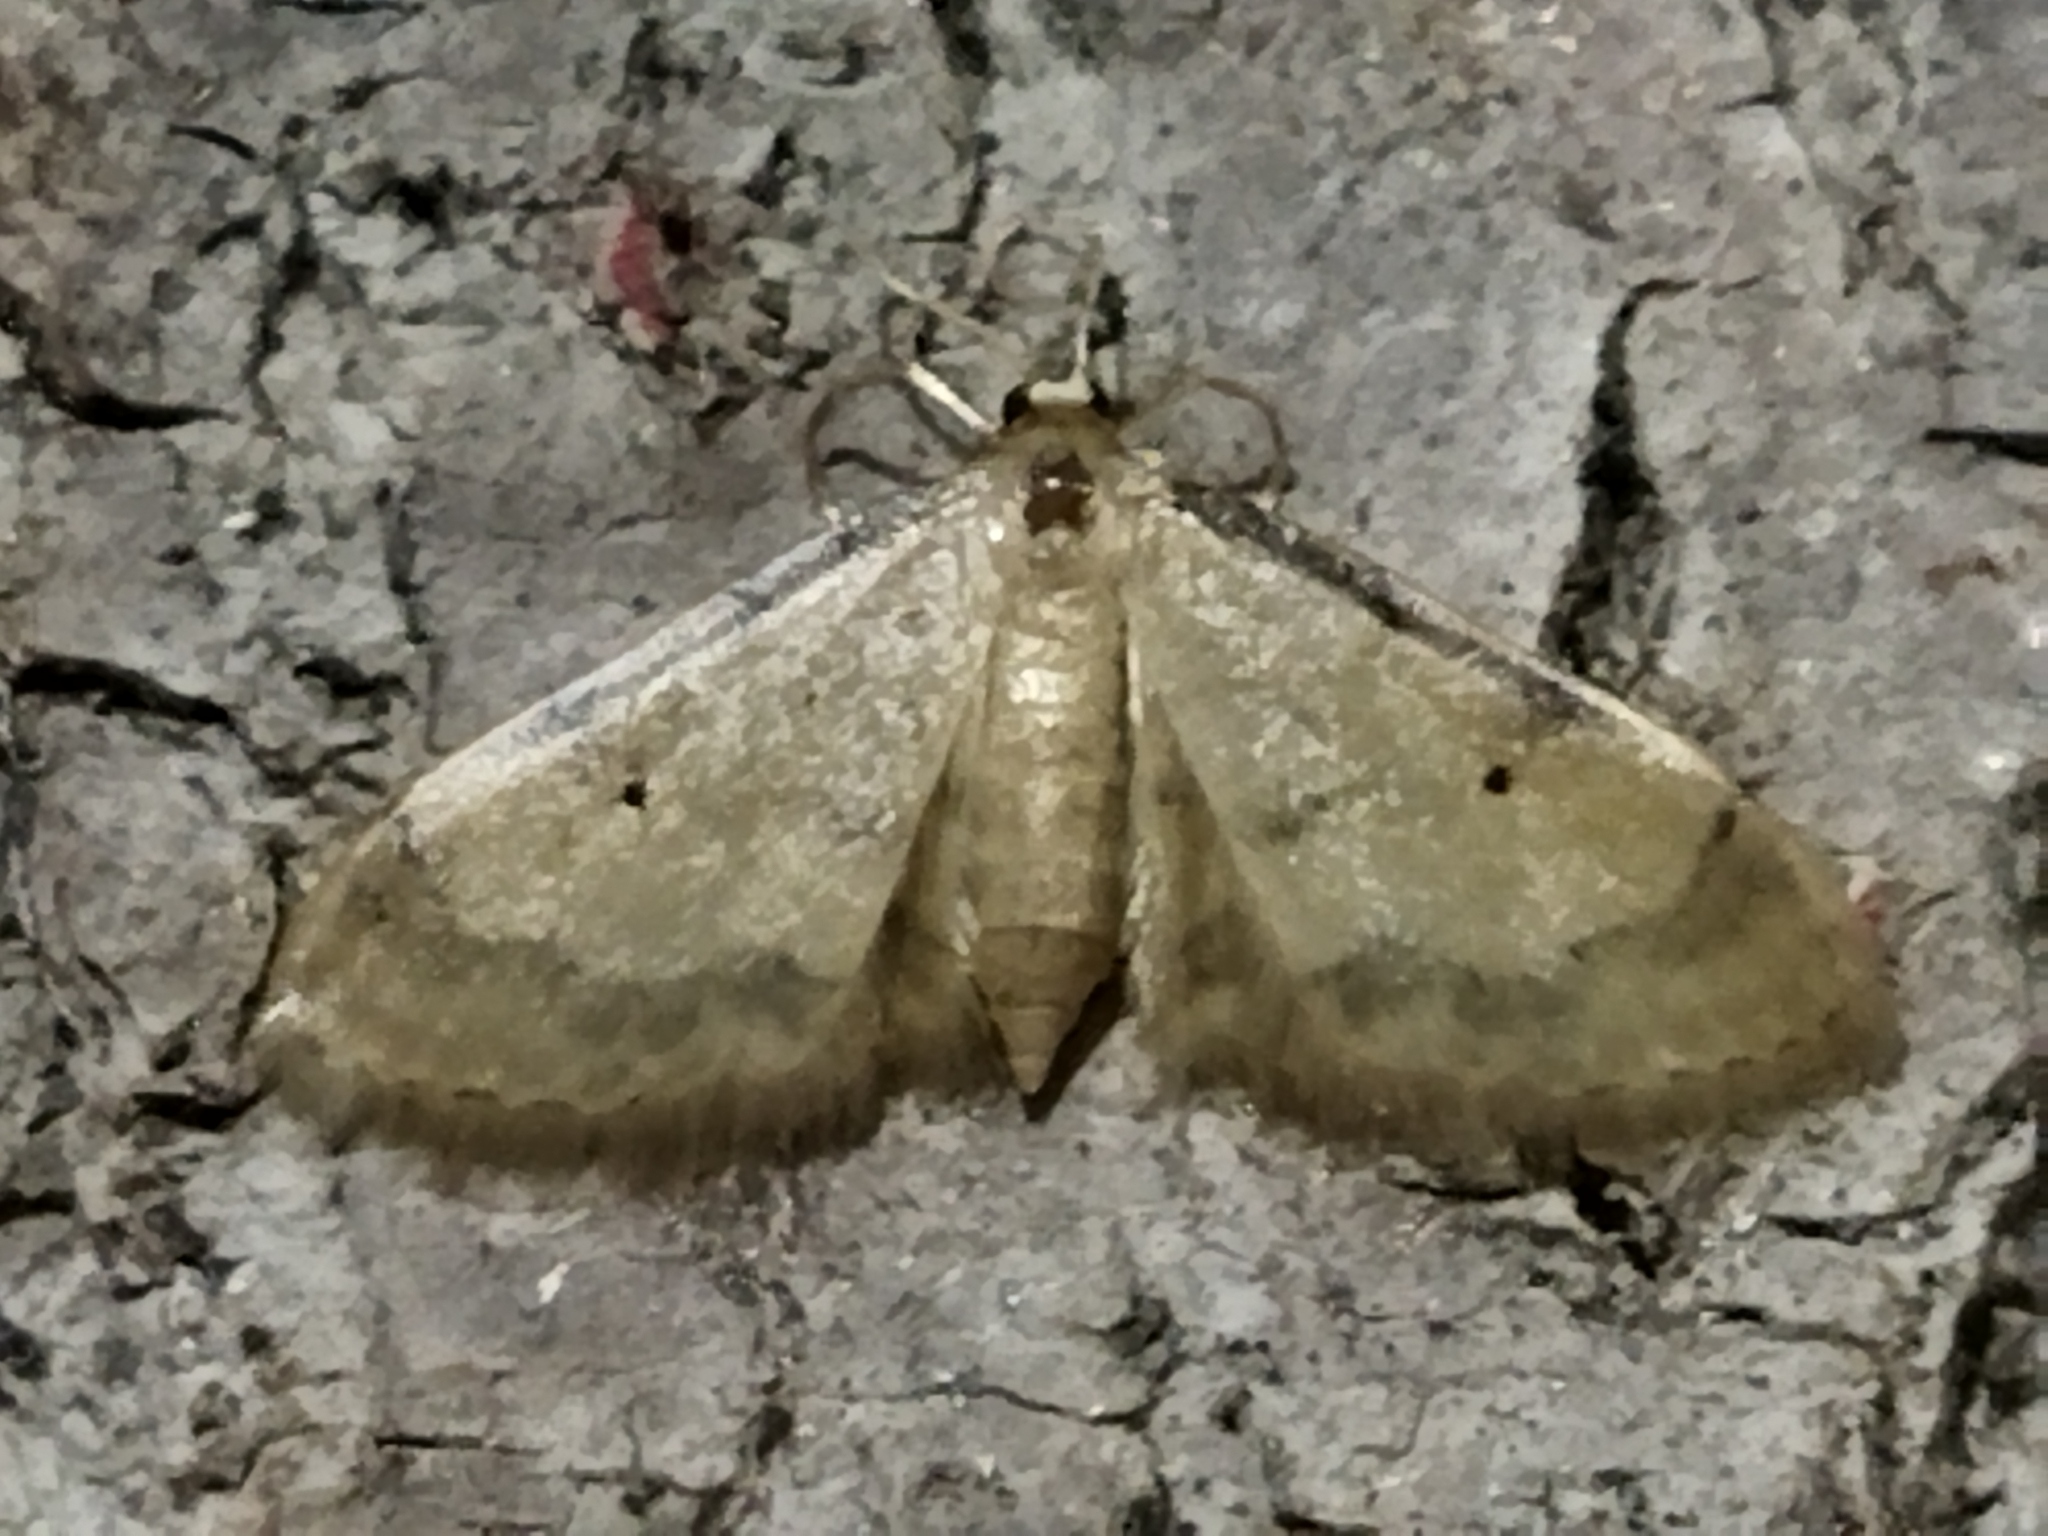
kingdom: Animalia
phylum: Arthropoda
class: Insecta
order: Lepidoptera
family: Geometridae
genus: Idaea
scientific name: Idaea politaria
